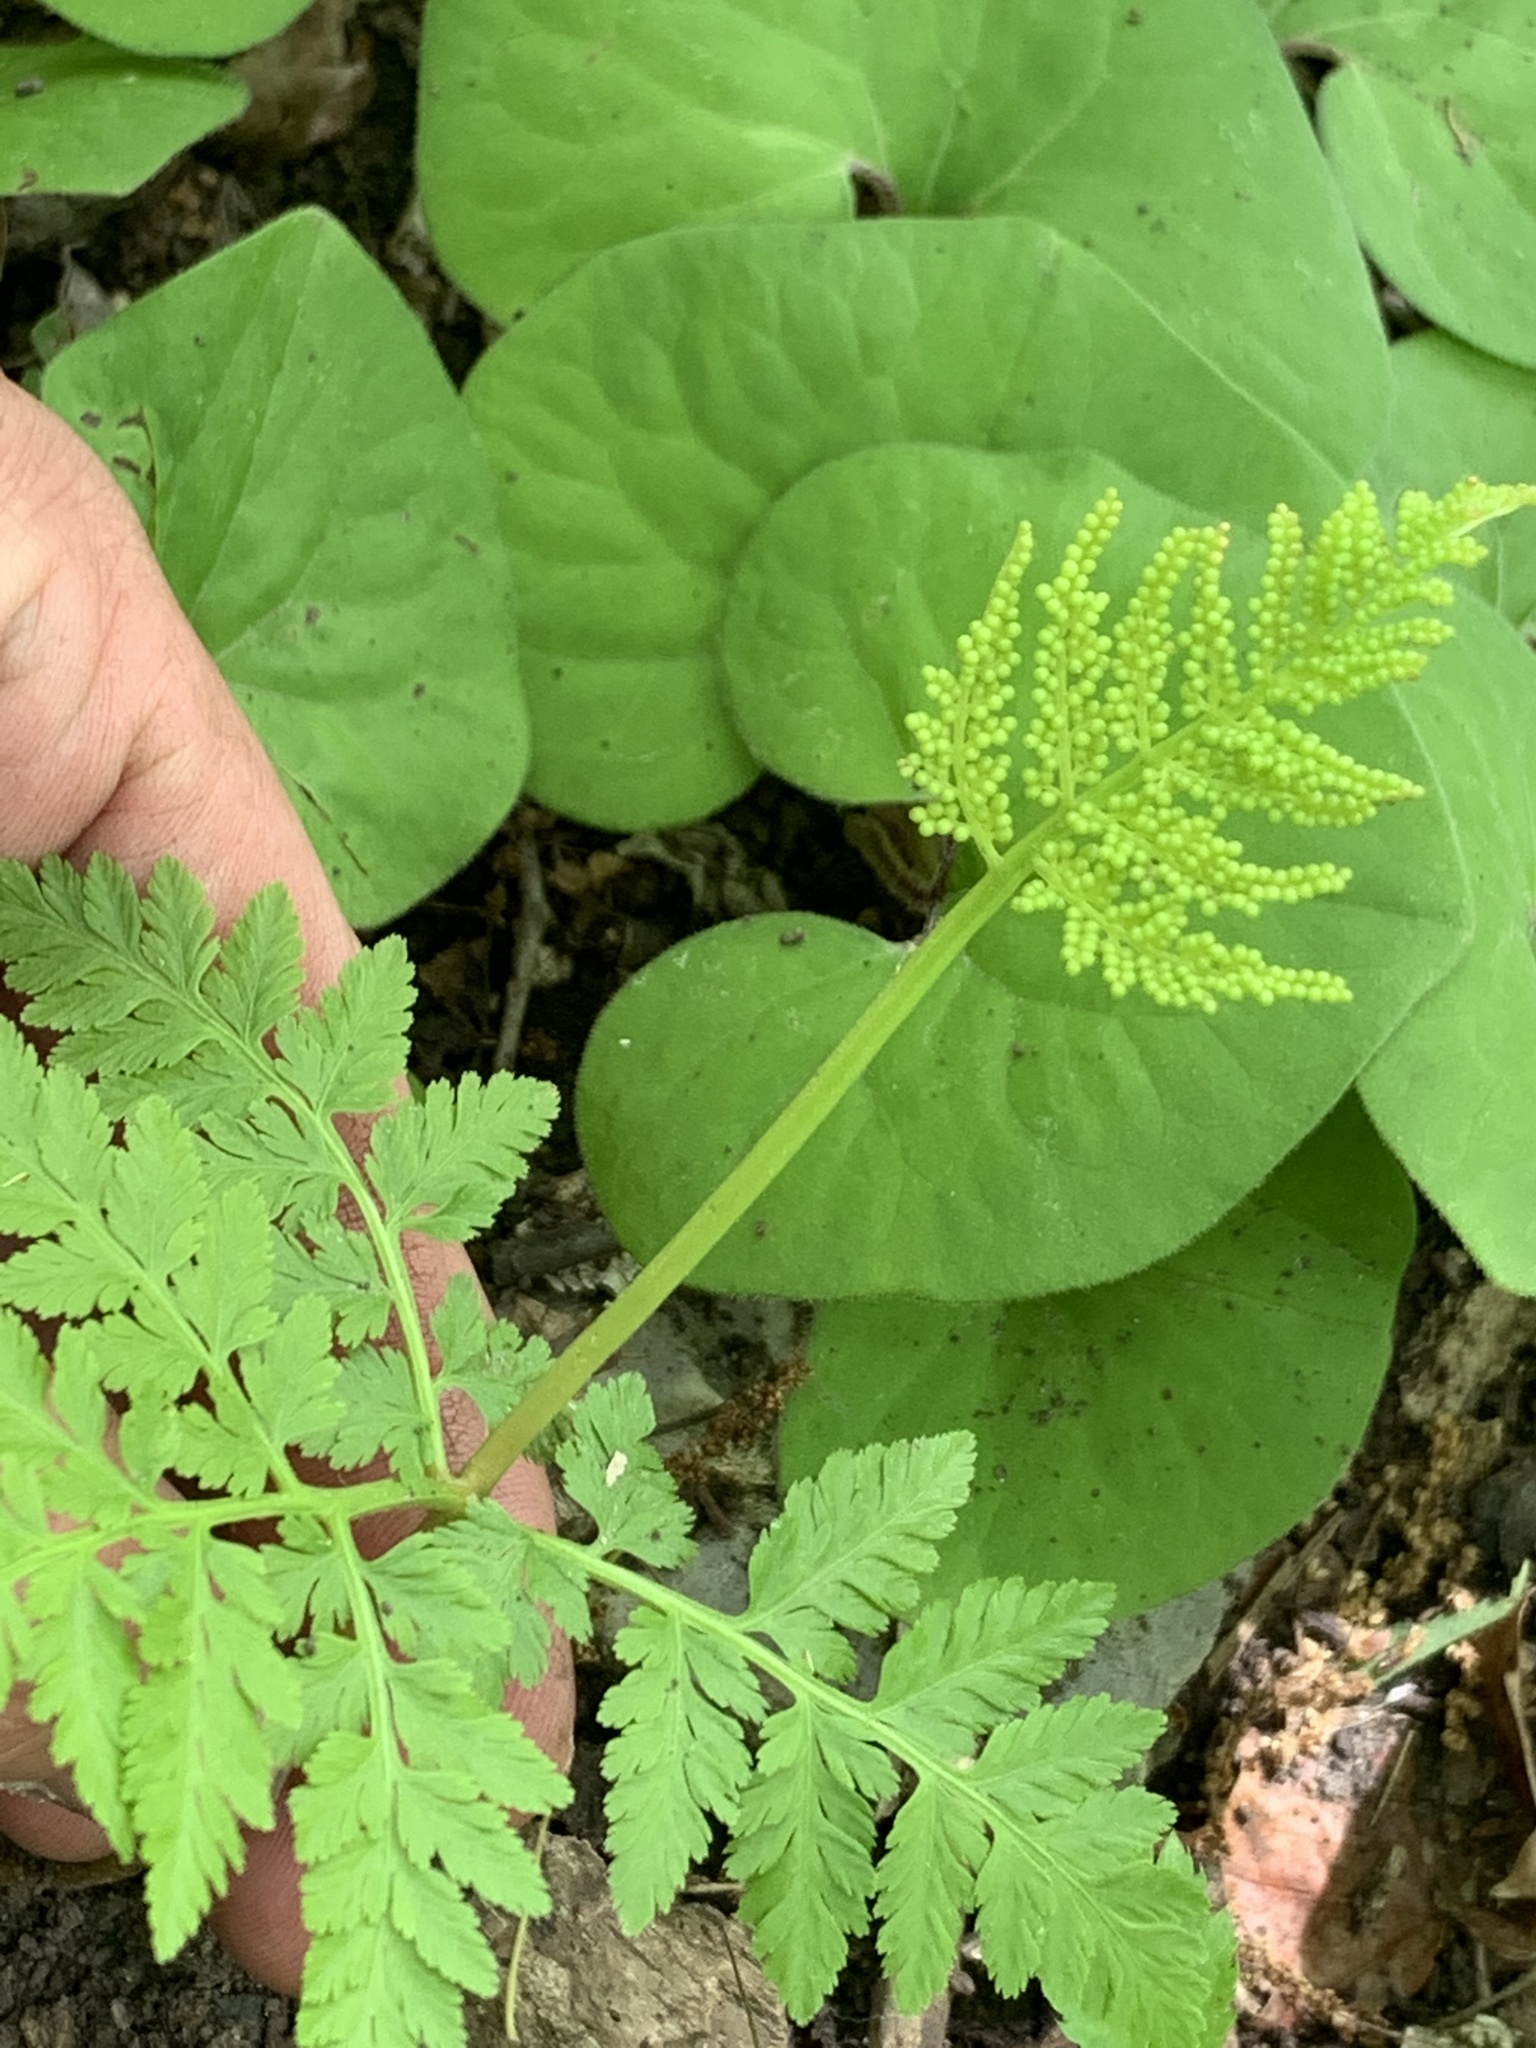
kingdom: Plantae
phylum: Tracheophyta
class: Polypodiopsida
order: Ophioglossales
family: Ophioglossaceae
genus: Botrypus
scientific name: Botrypus virginianus
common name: Common grapefern
